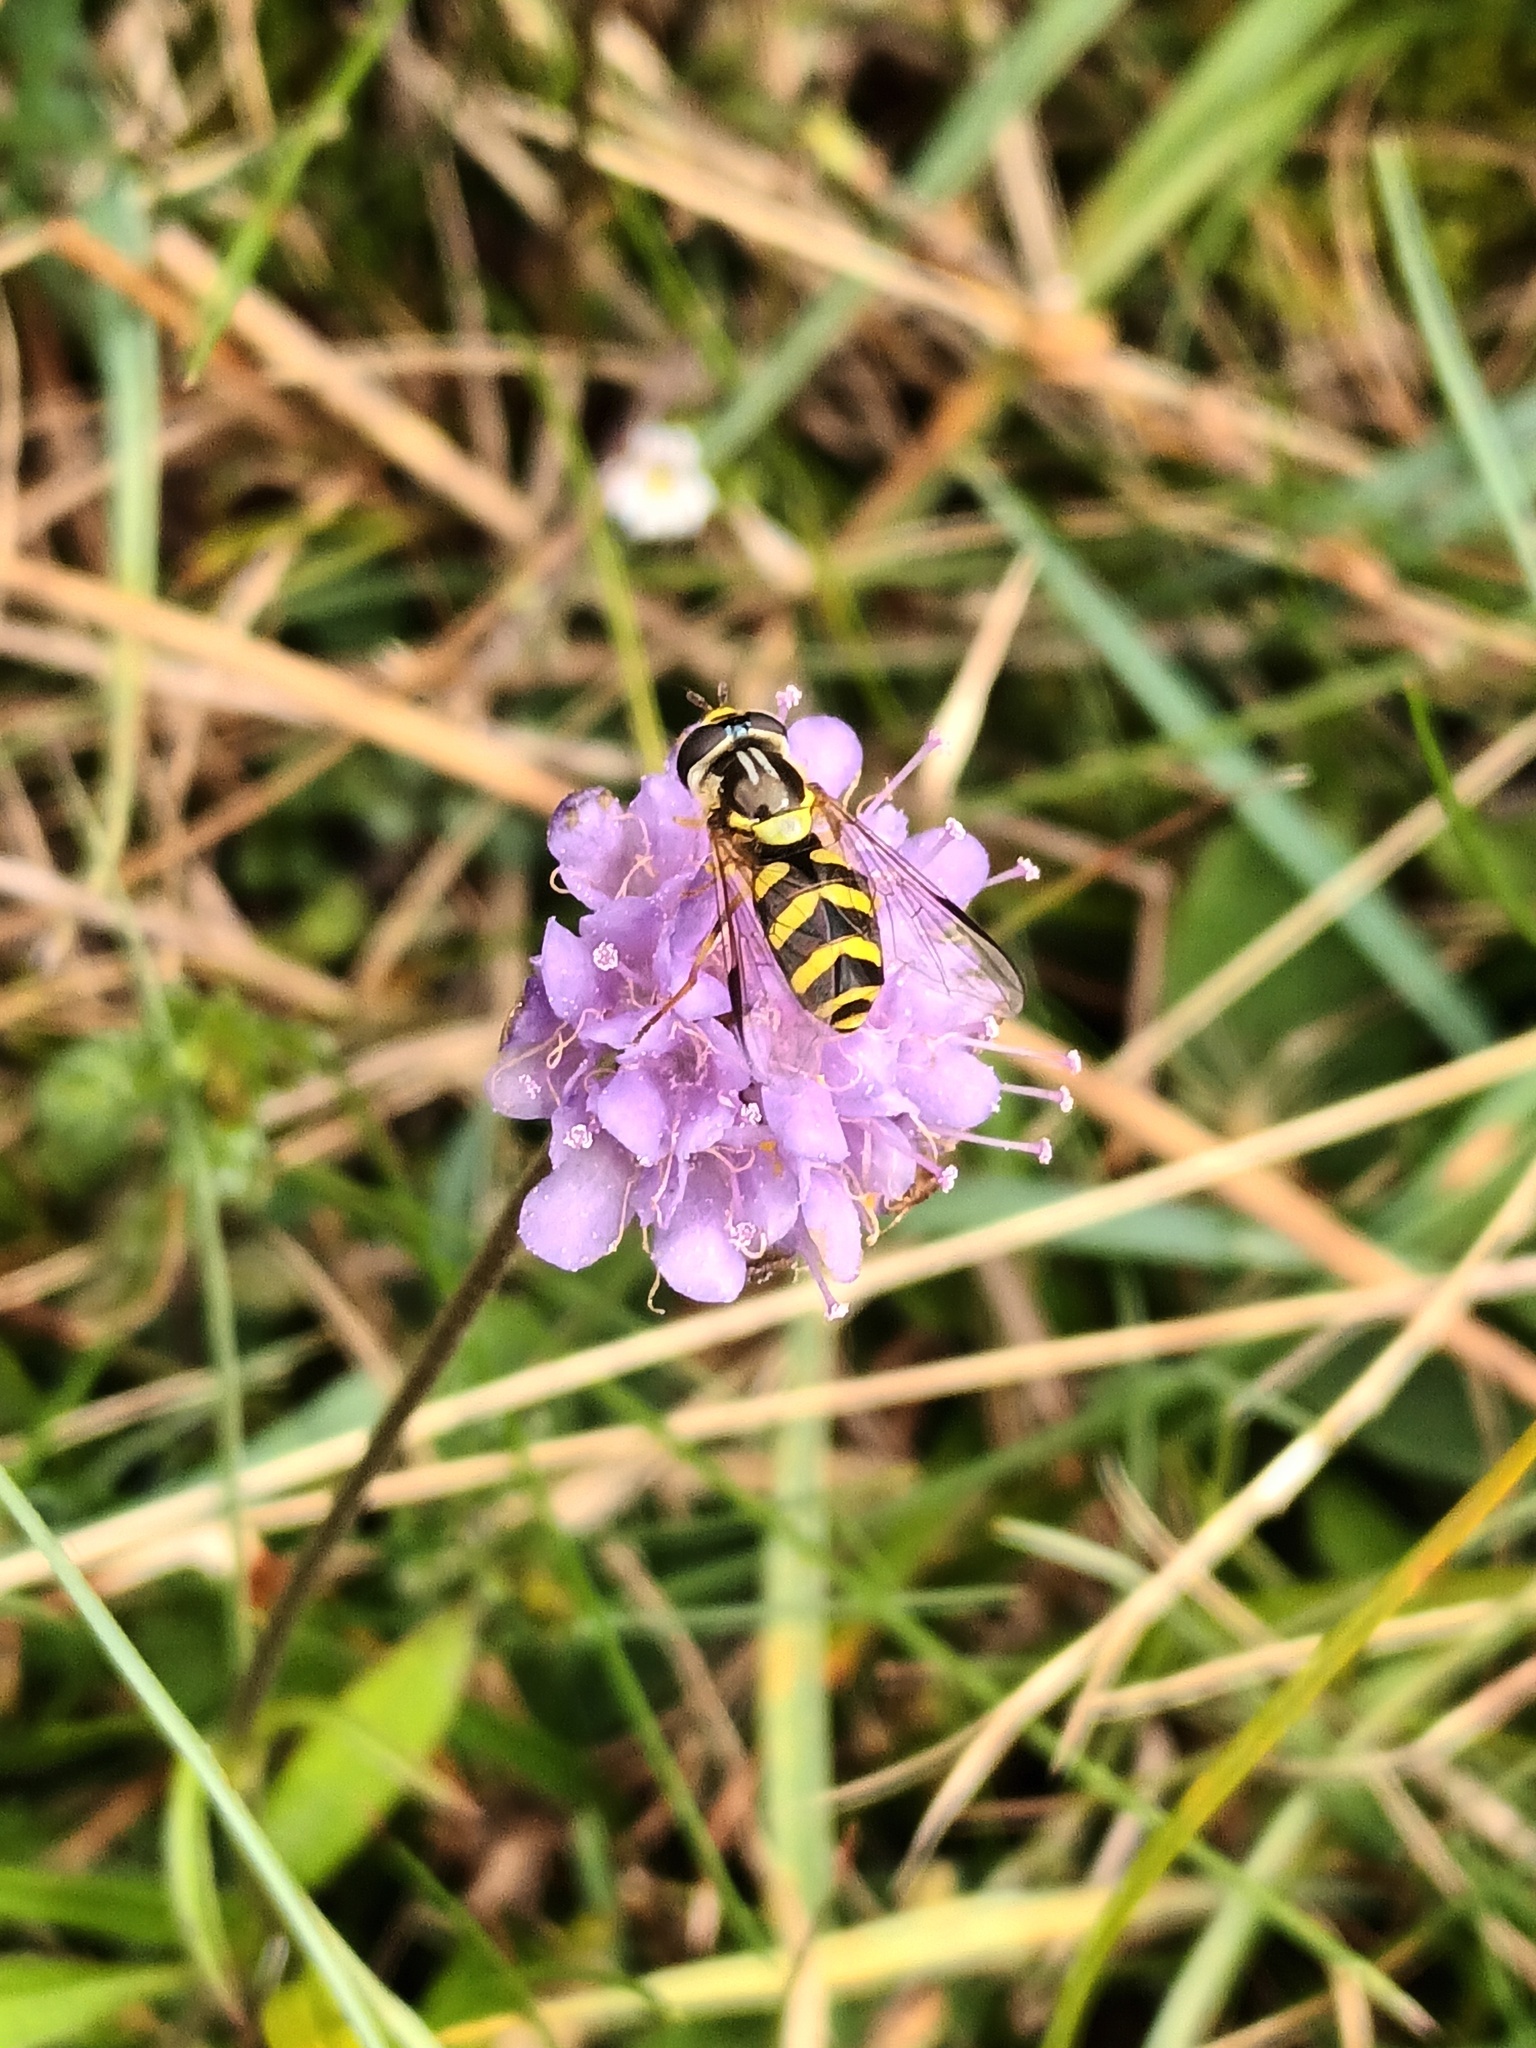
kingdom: Animalia
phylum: Arthropoda
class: Insecta
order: Diptera
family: Syrphidae
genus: Dasysyrphus
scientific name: Dasysyrphus albostriatus
